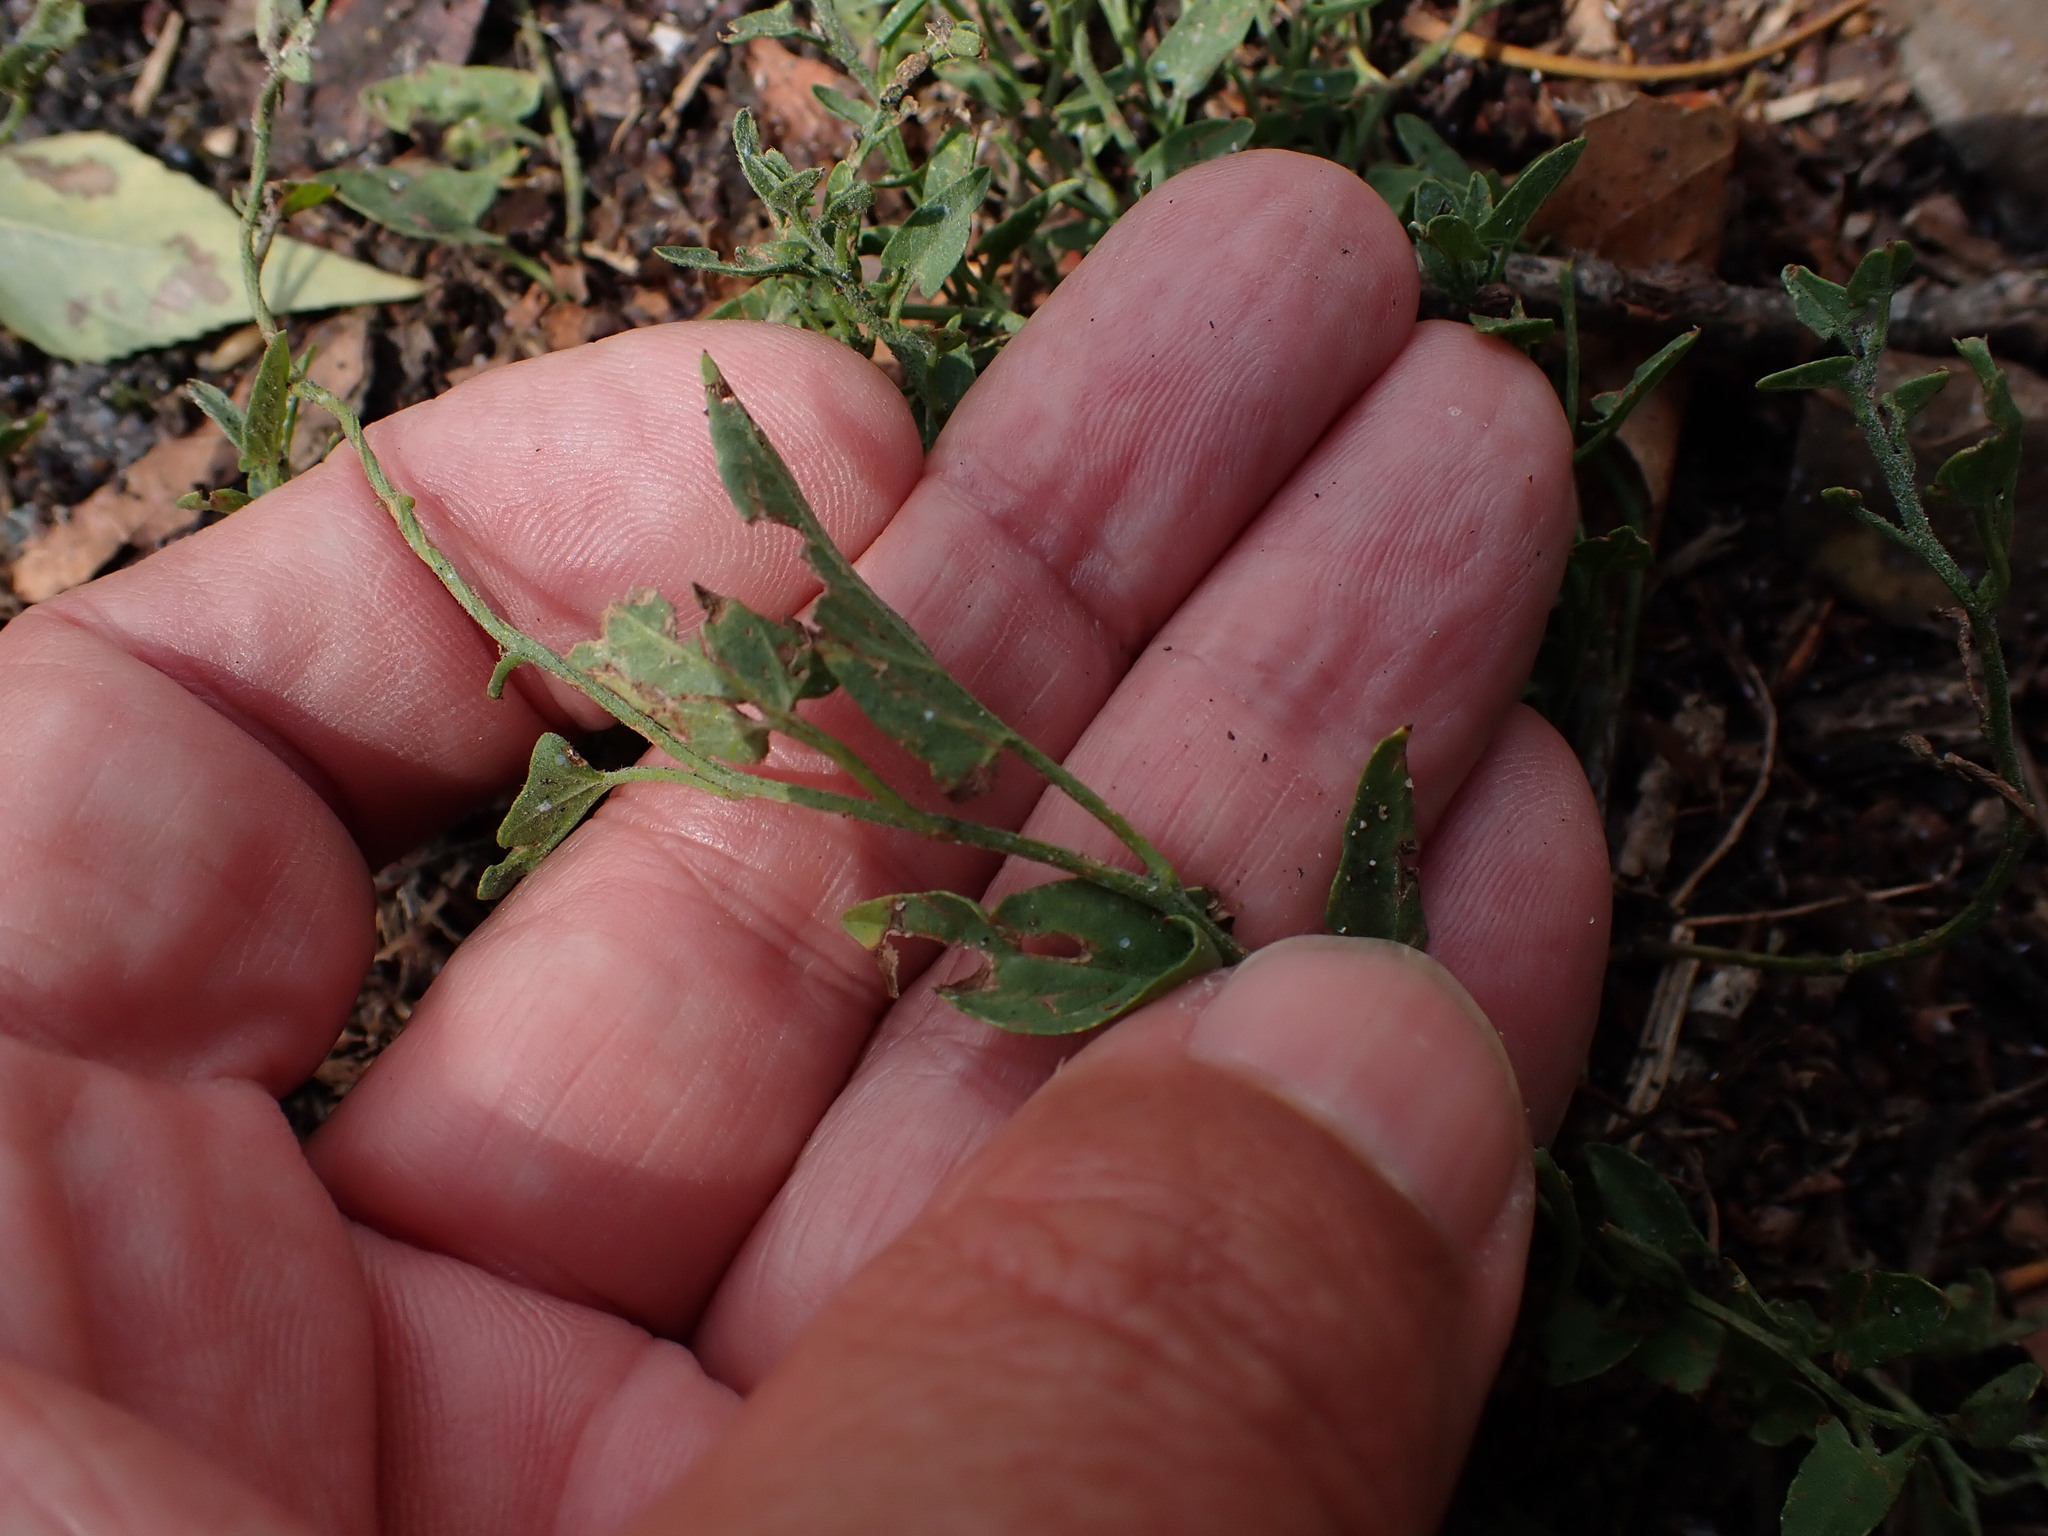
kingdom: Plantae
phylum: Tracheophyta
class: Magnoliopsida
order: Solanales
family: Convolvulaceae
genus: Convolvulus
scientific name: Convolvulus arvensis
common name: Field bindweed
